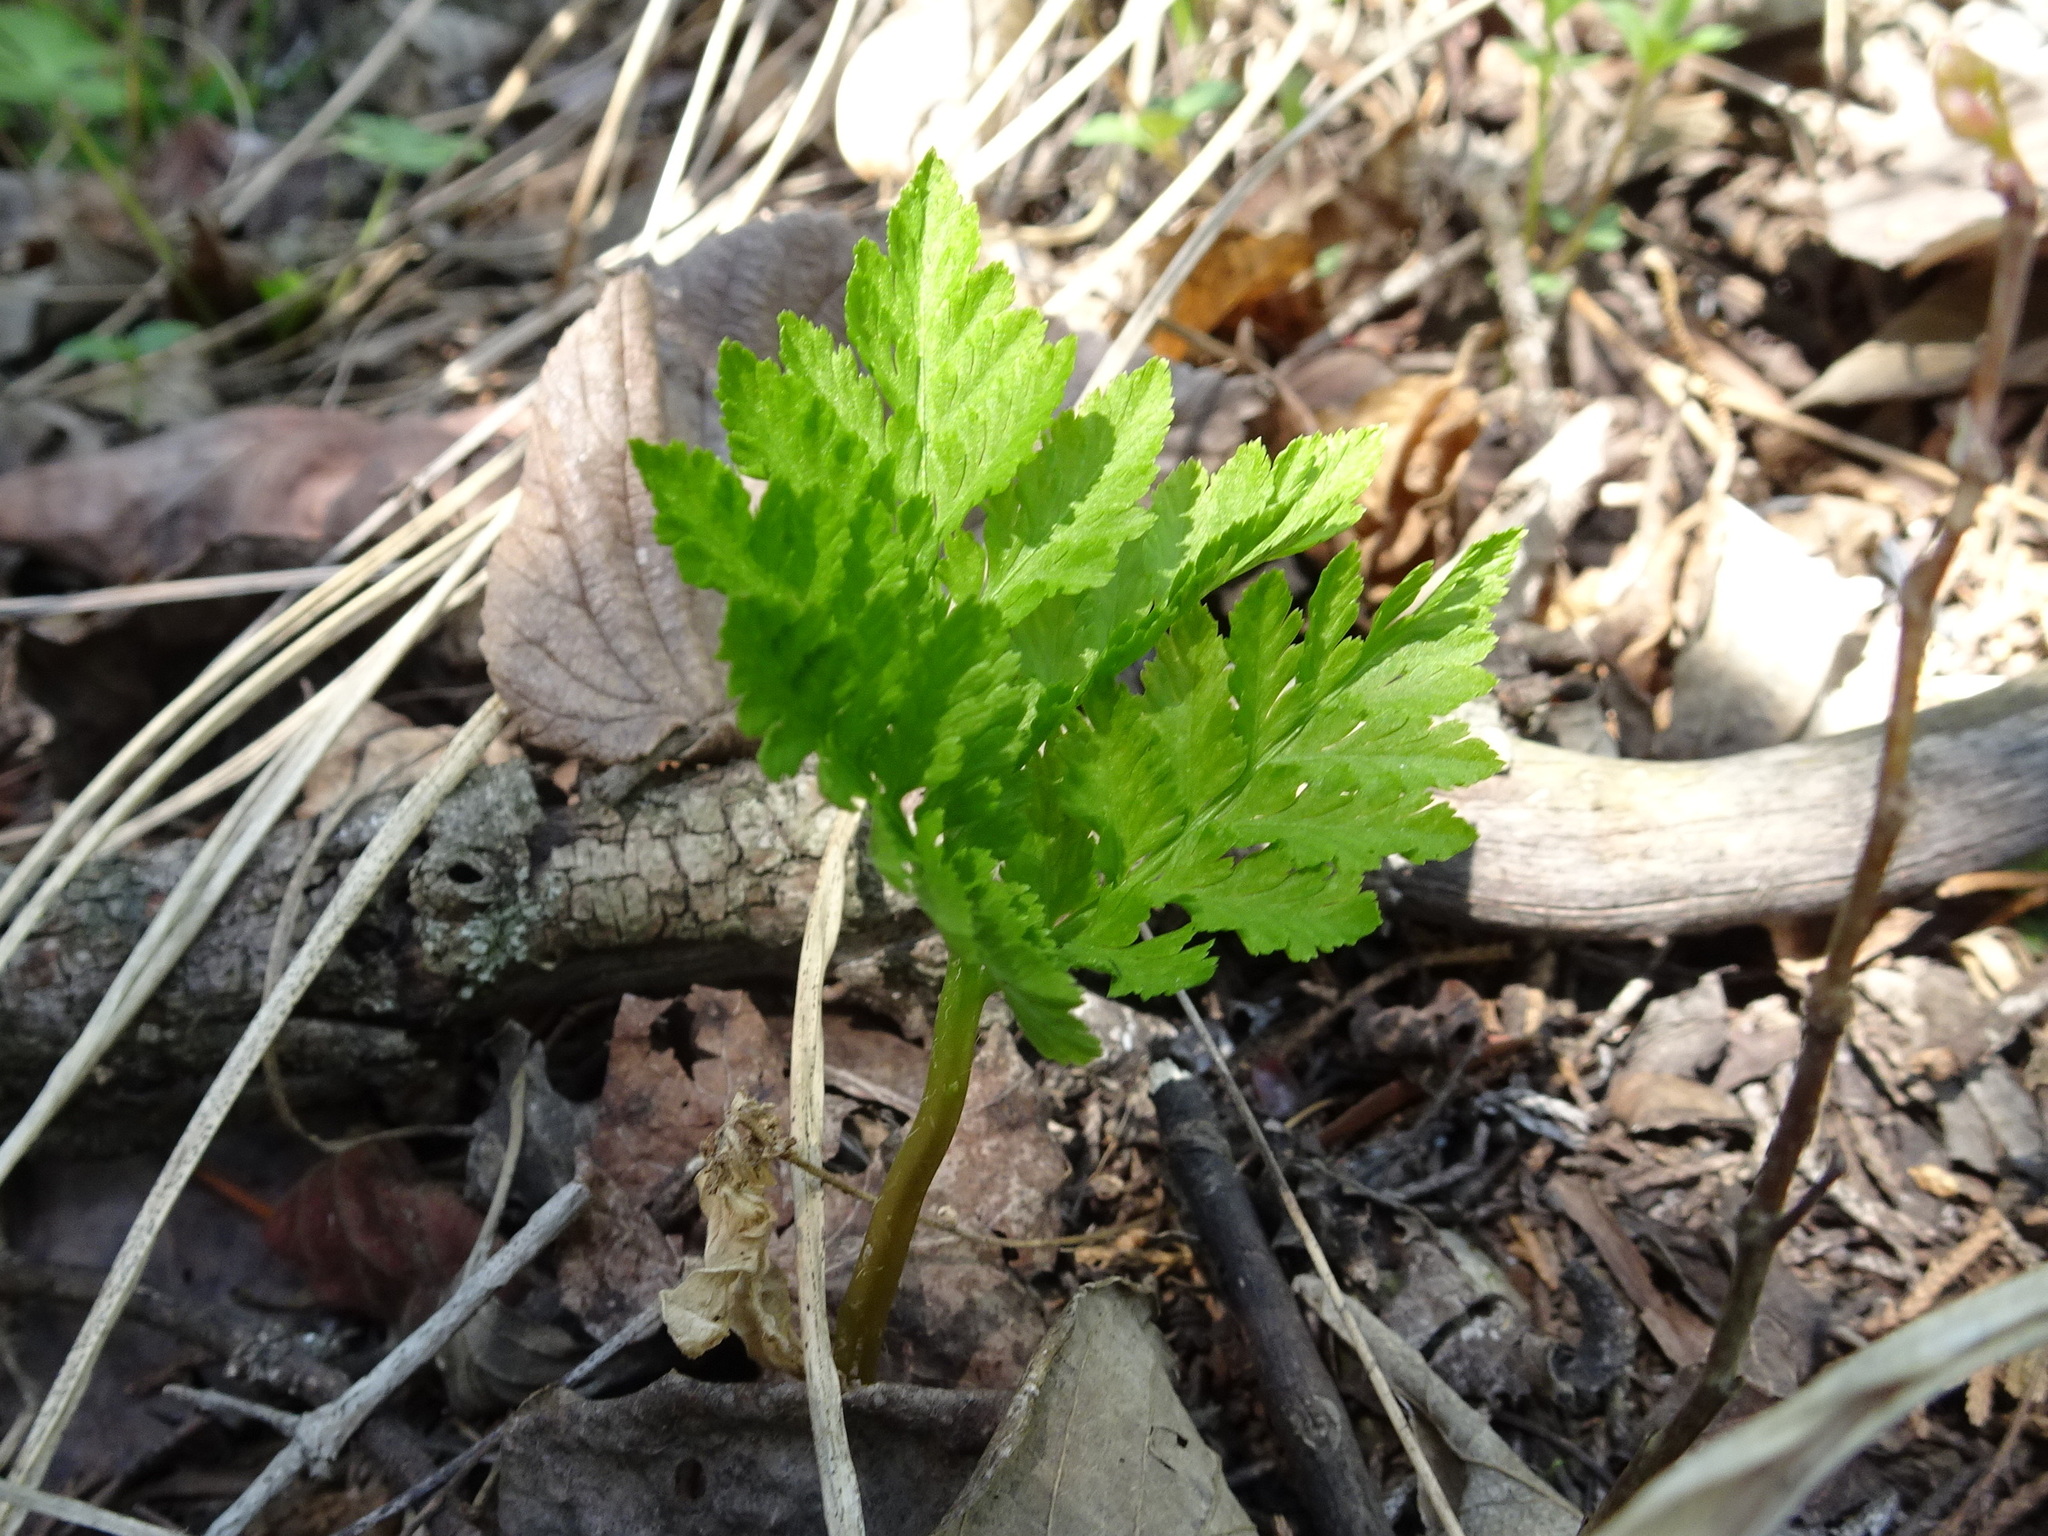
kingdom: Plantae
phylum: Tracheophyta
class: Polypodiopsida
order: Ophioglossales
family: Ophioglossaceae
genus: Botrypus
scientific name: Botrypus virginianus
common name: Common grapefern
